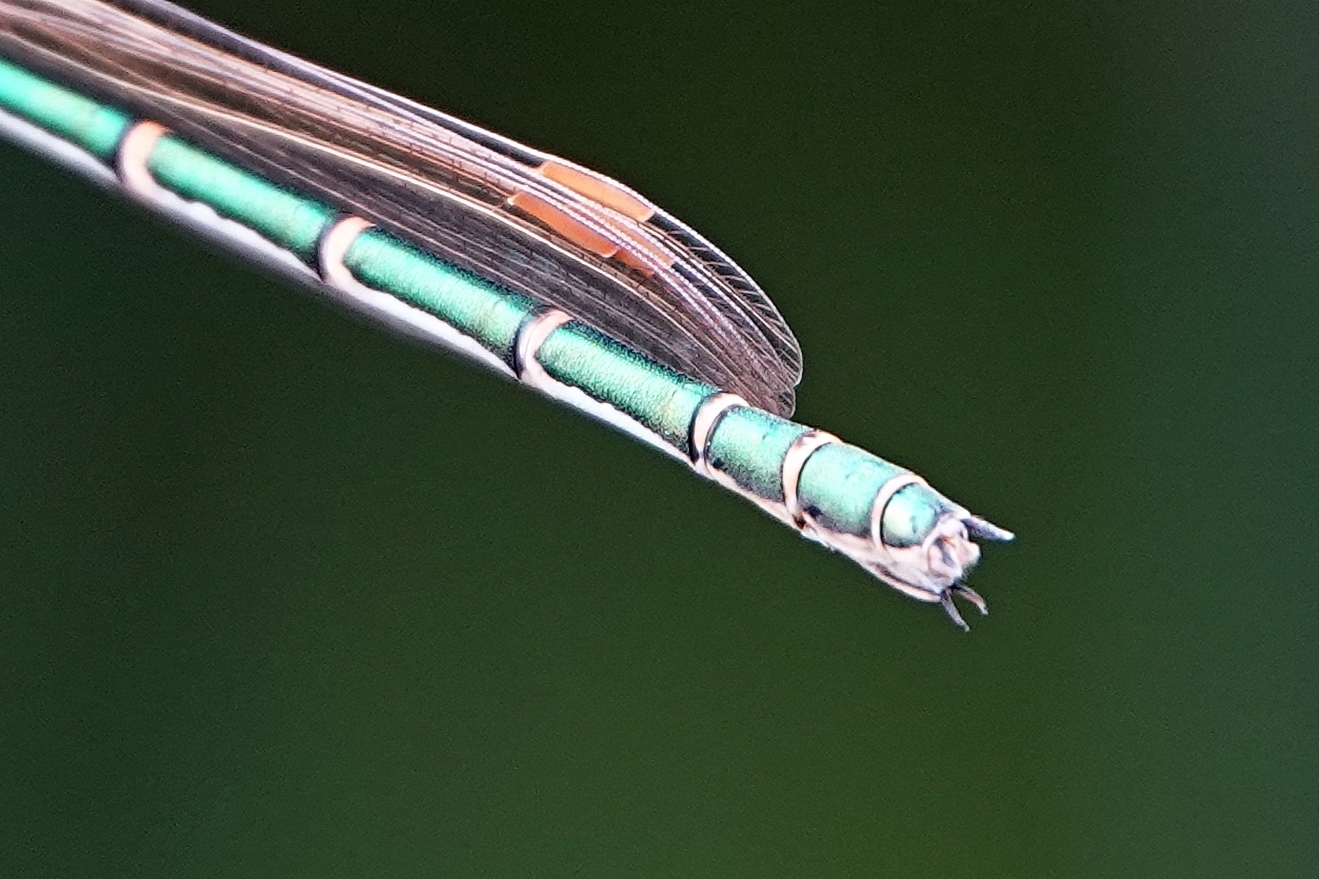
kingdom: Animalia
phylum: Arthropoda
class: Insecta
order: Odonata
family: Lestidae
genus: Austrolestes
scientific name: Austrolestes cingulatus
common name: Metallic ringtail
